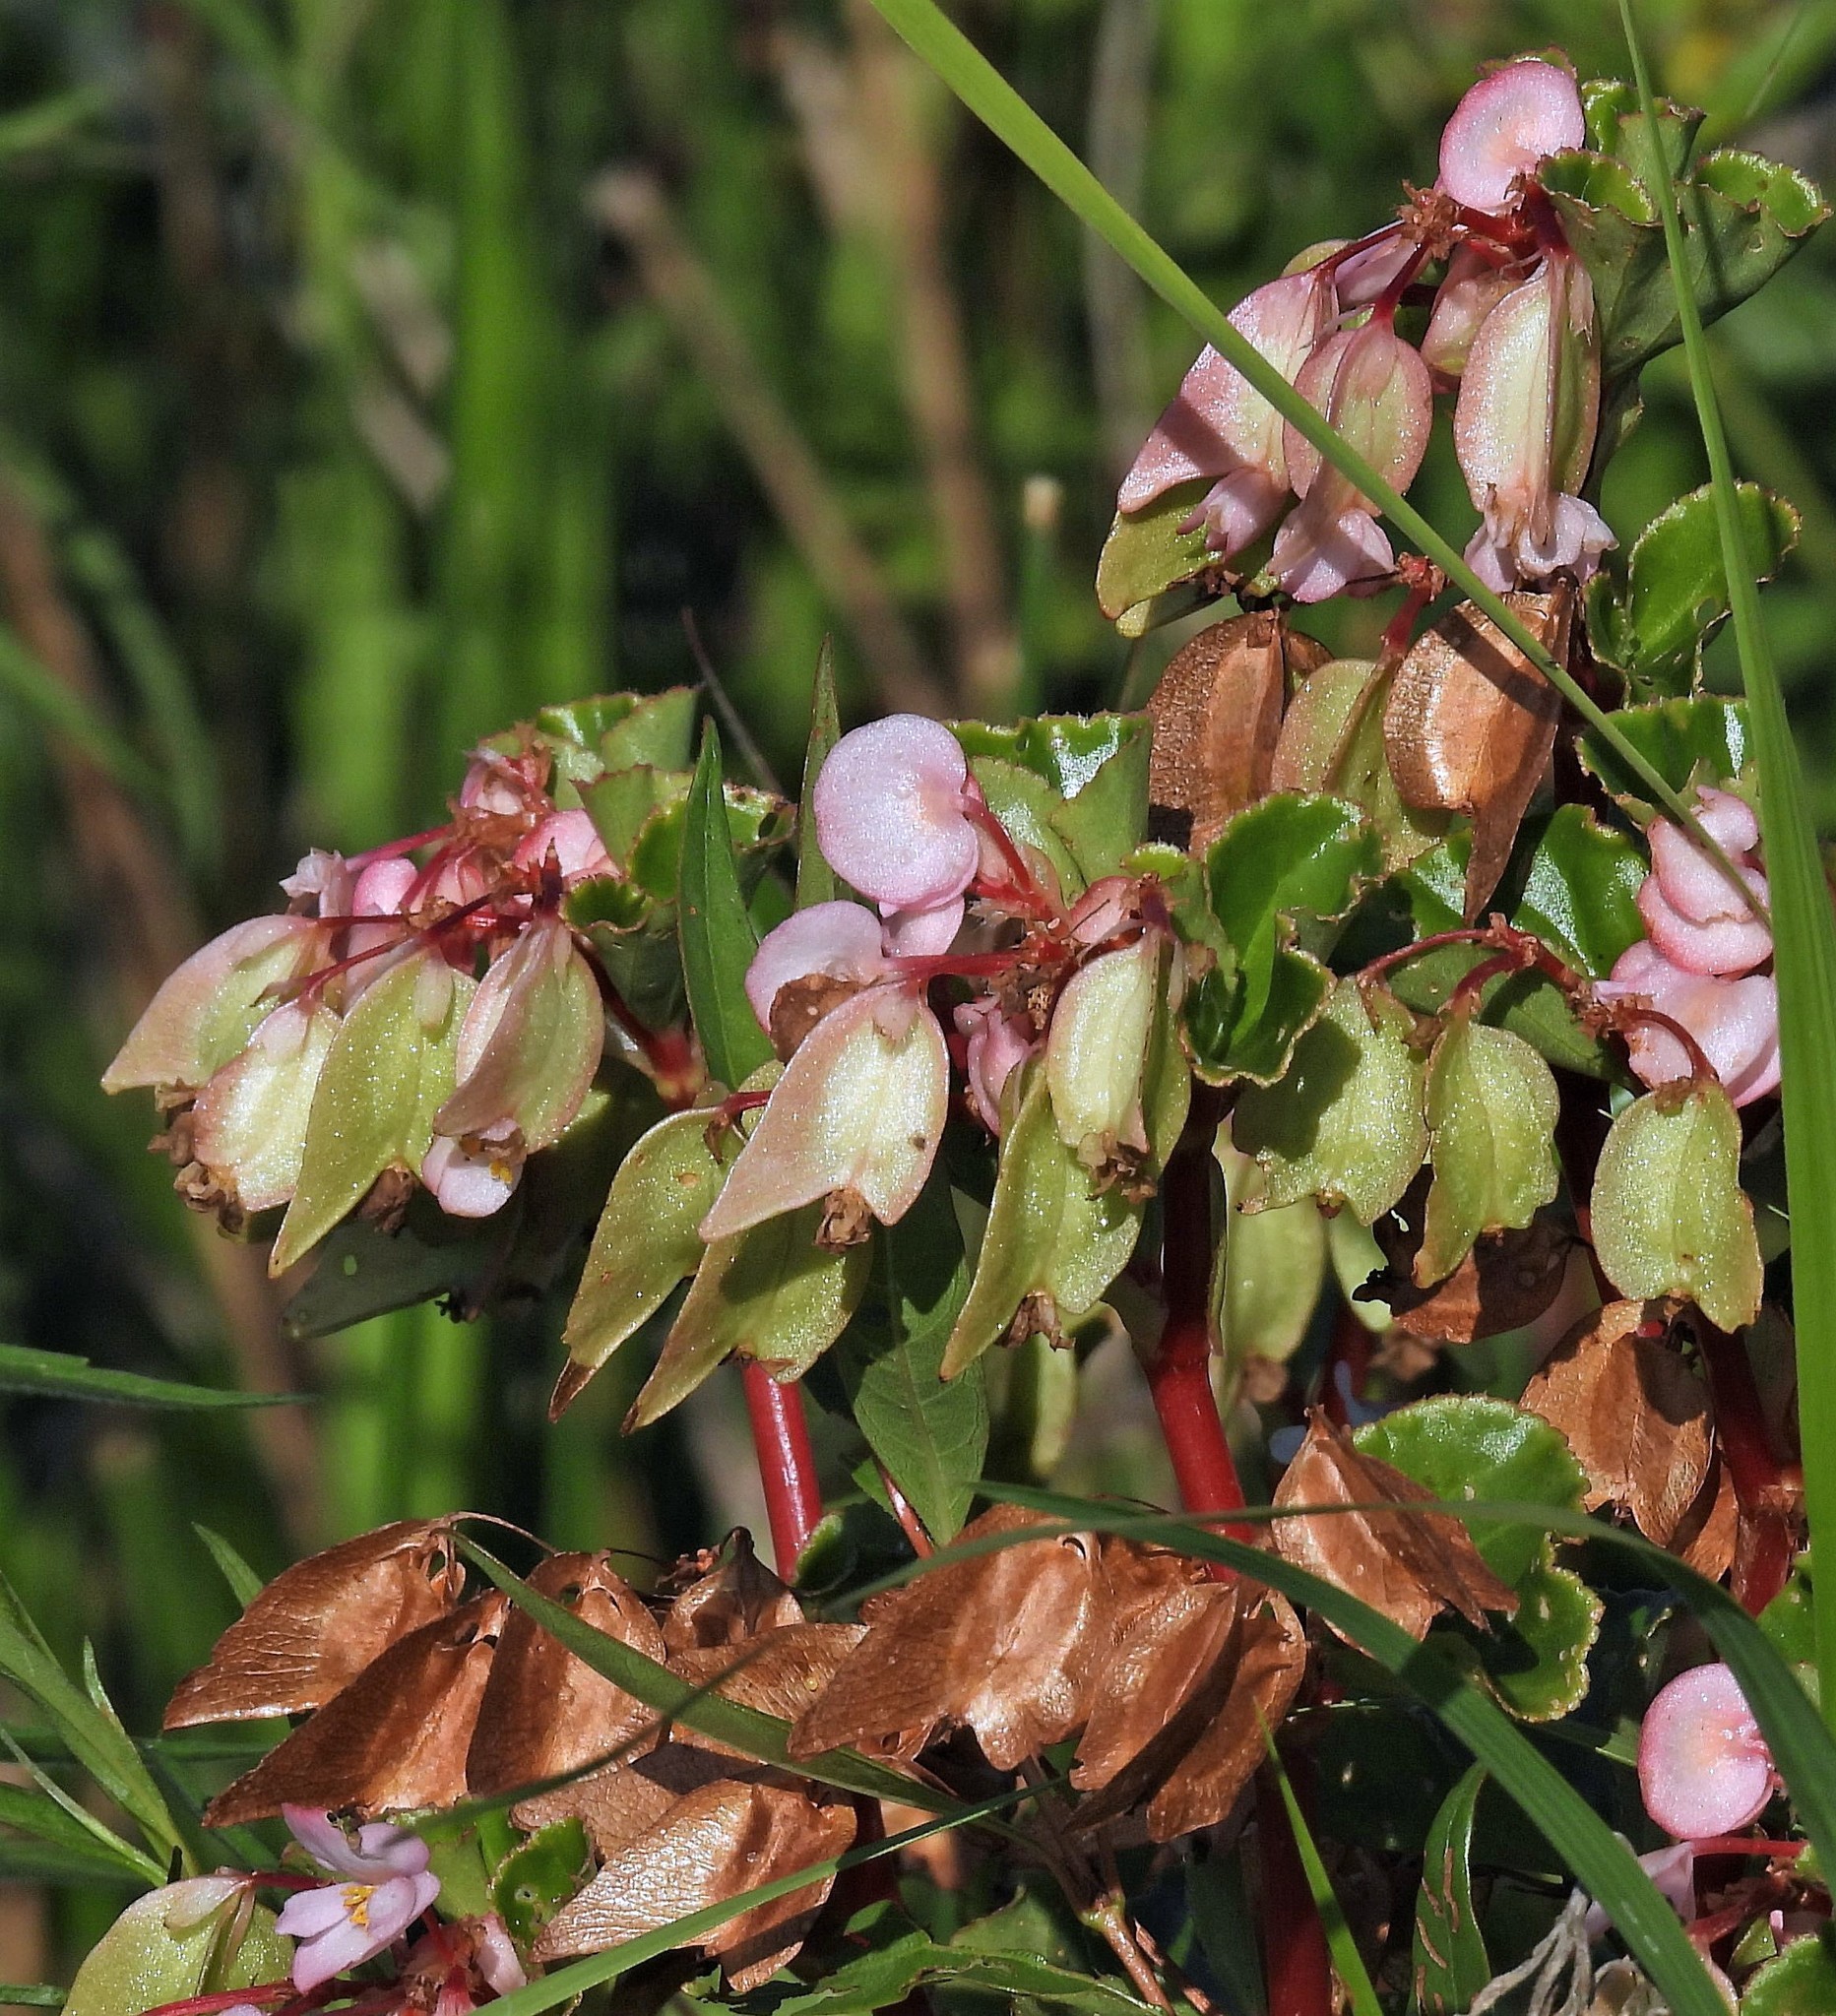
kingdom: Plantae
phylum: Tracheophyta
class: Magnoliopsida
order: Cucurbitales
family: Begoniaceae
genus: Begonia
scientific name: Begonia cucullata
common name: Clubbed begonia
